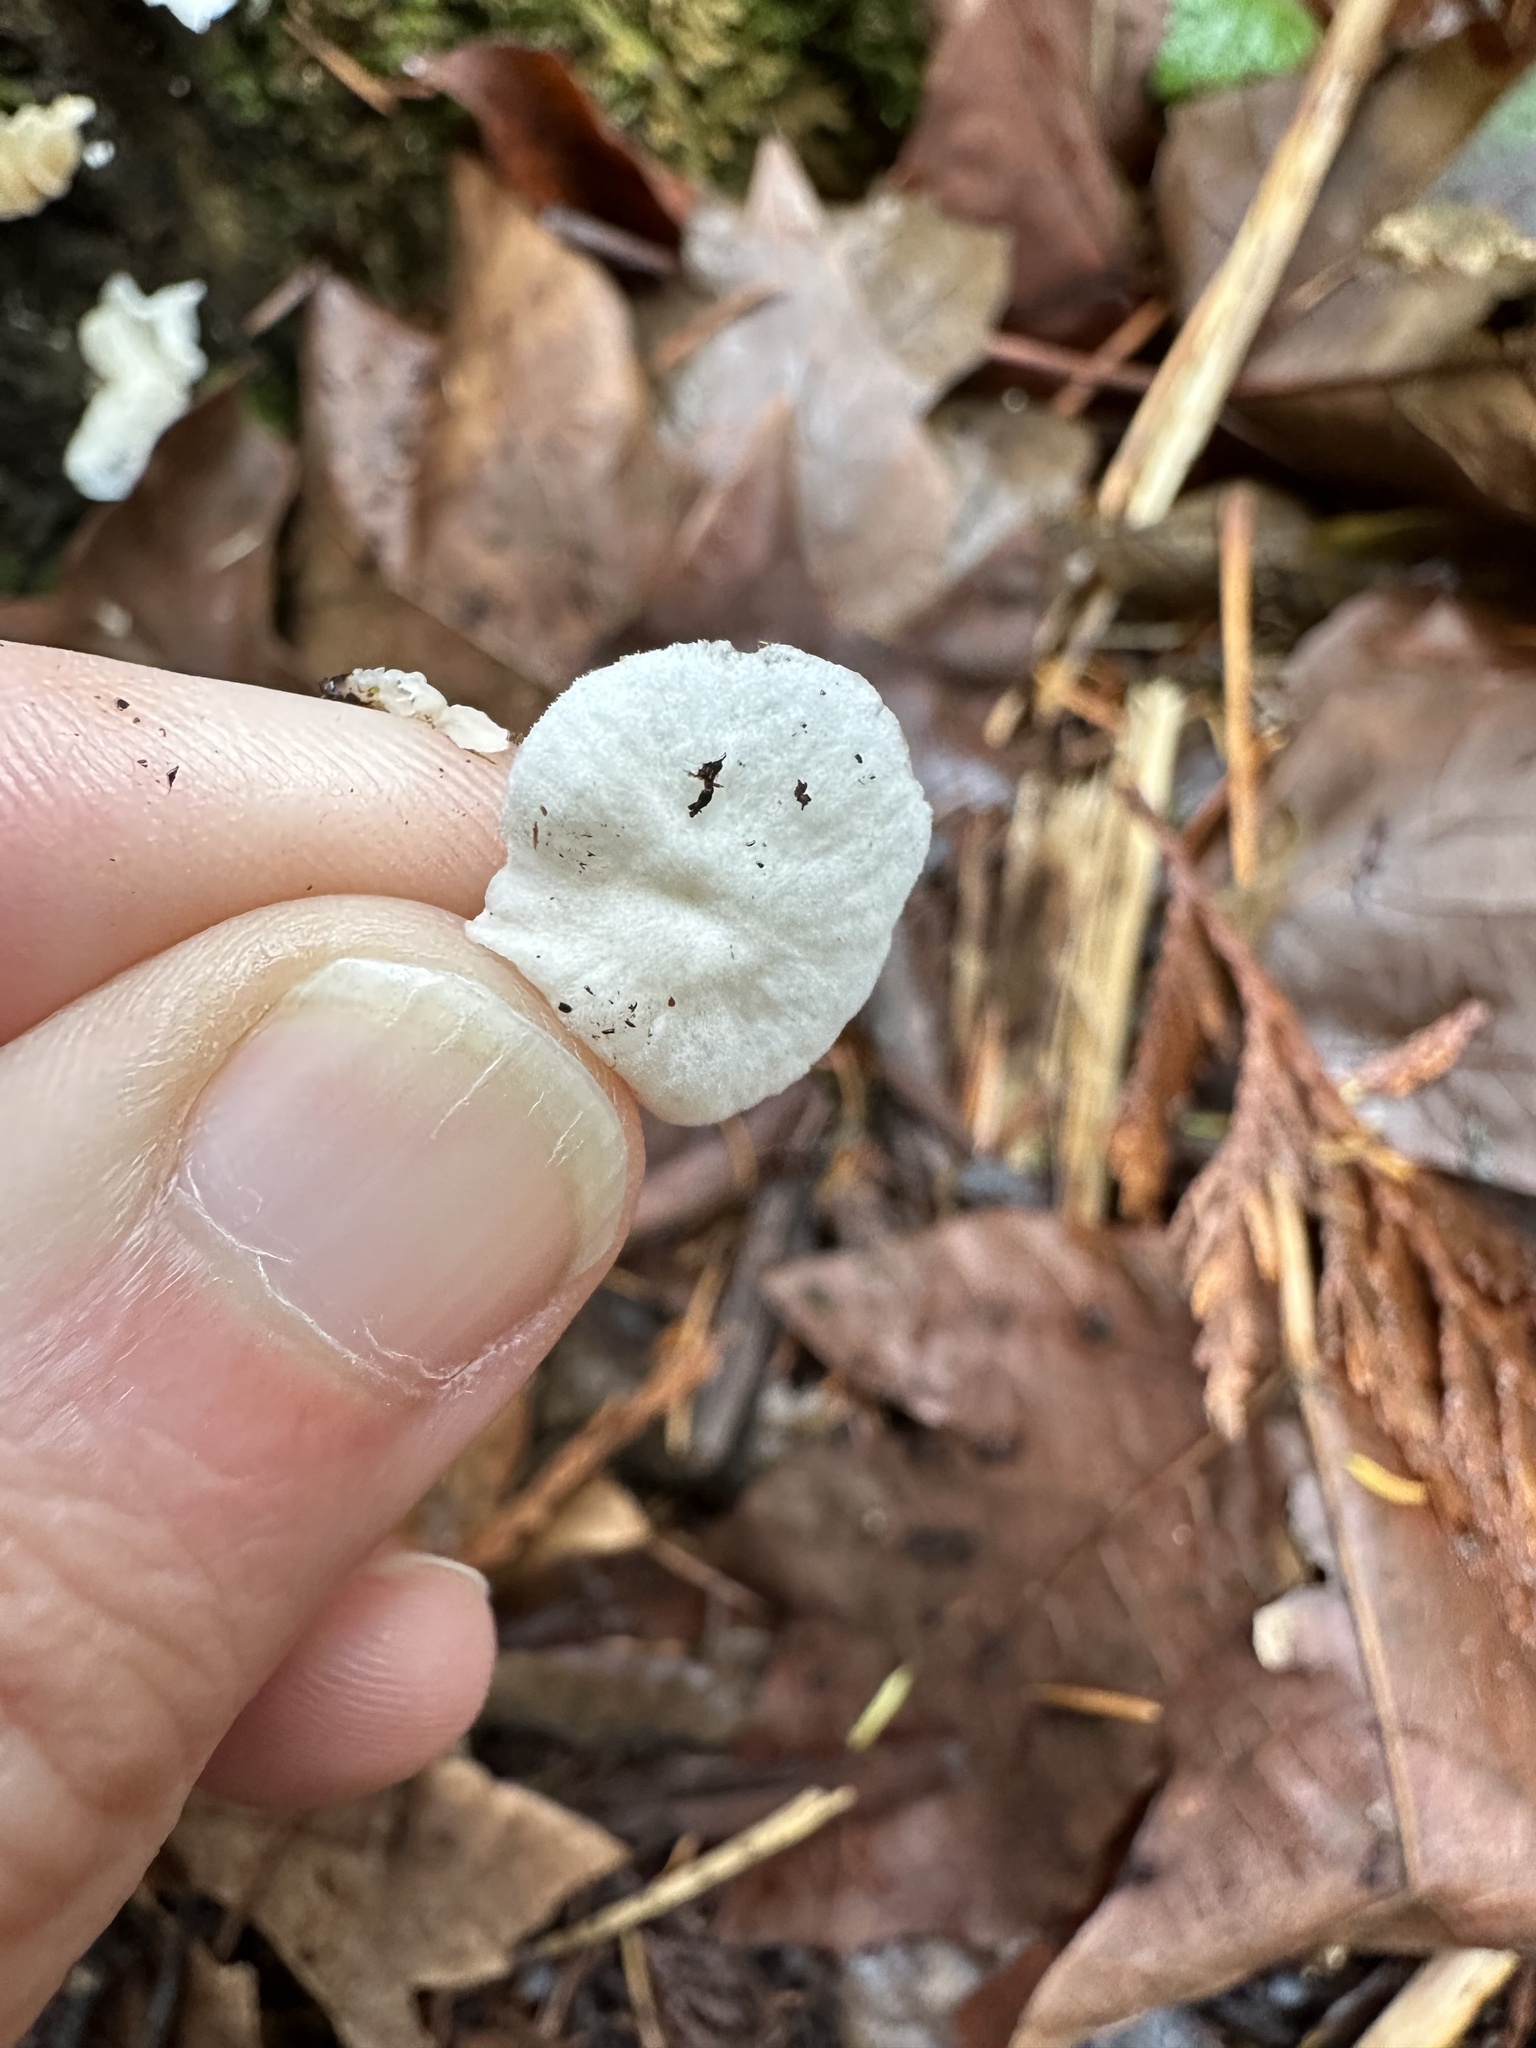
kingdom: Fungi
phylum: Basidiomycota
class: Agaricomycetes
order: Agaricales
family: Omphalotaceae
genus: Marasmiellus
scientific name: Marasmiellus candidus
